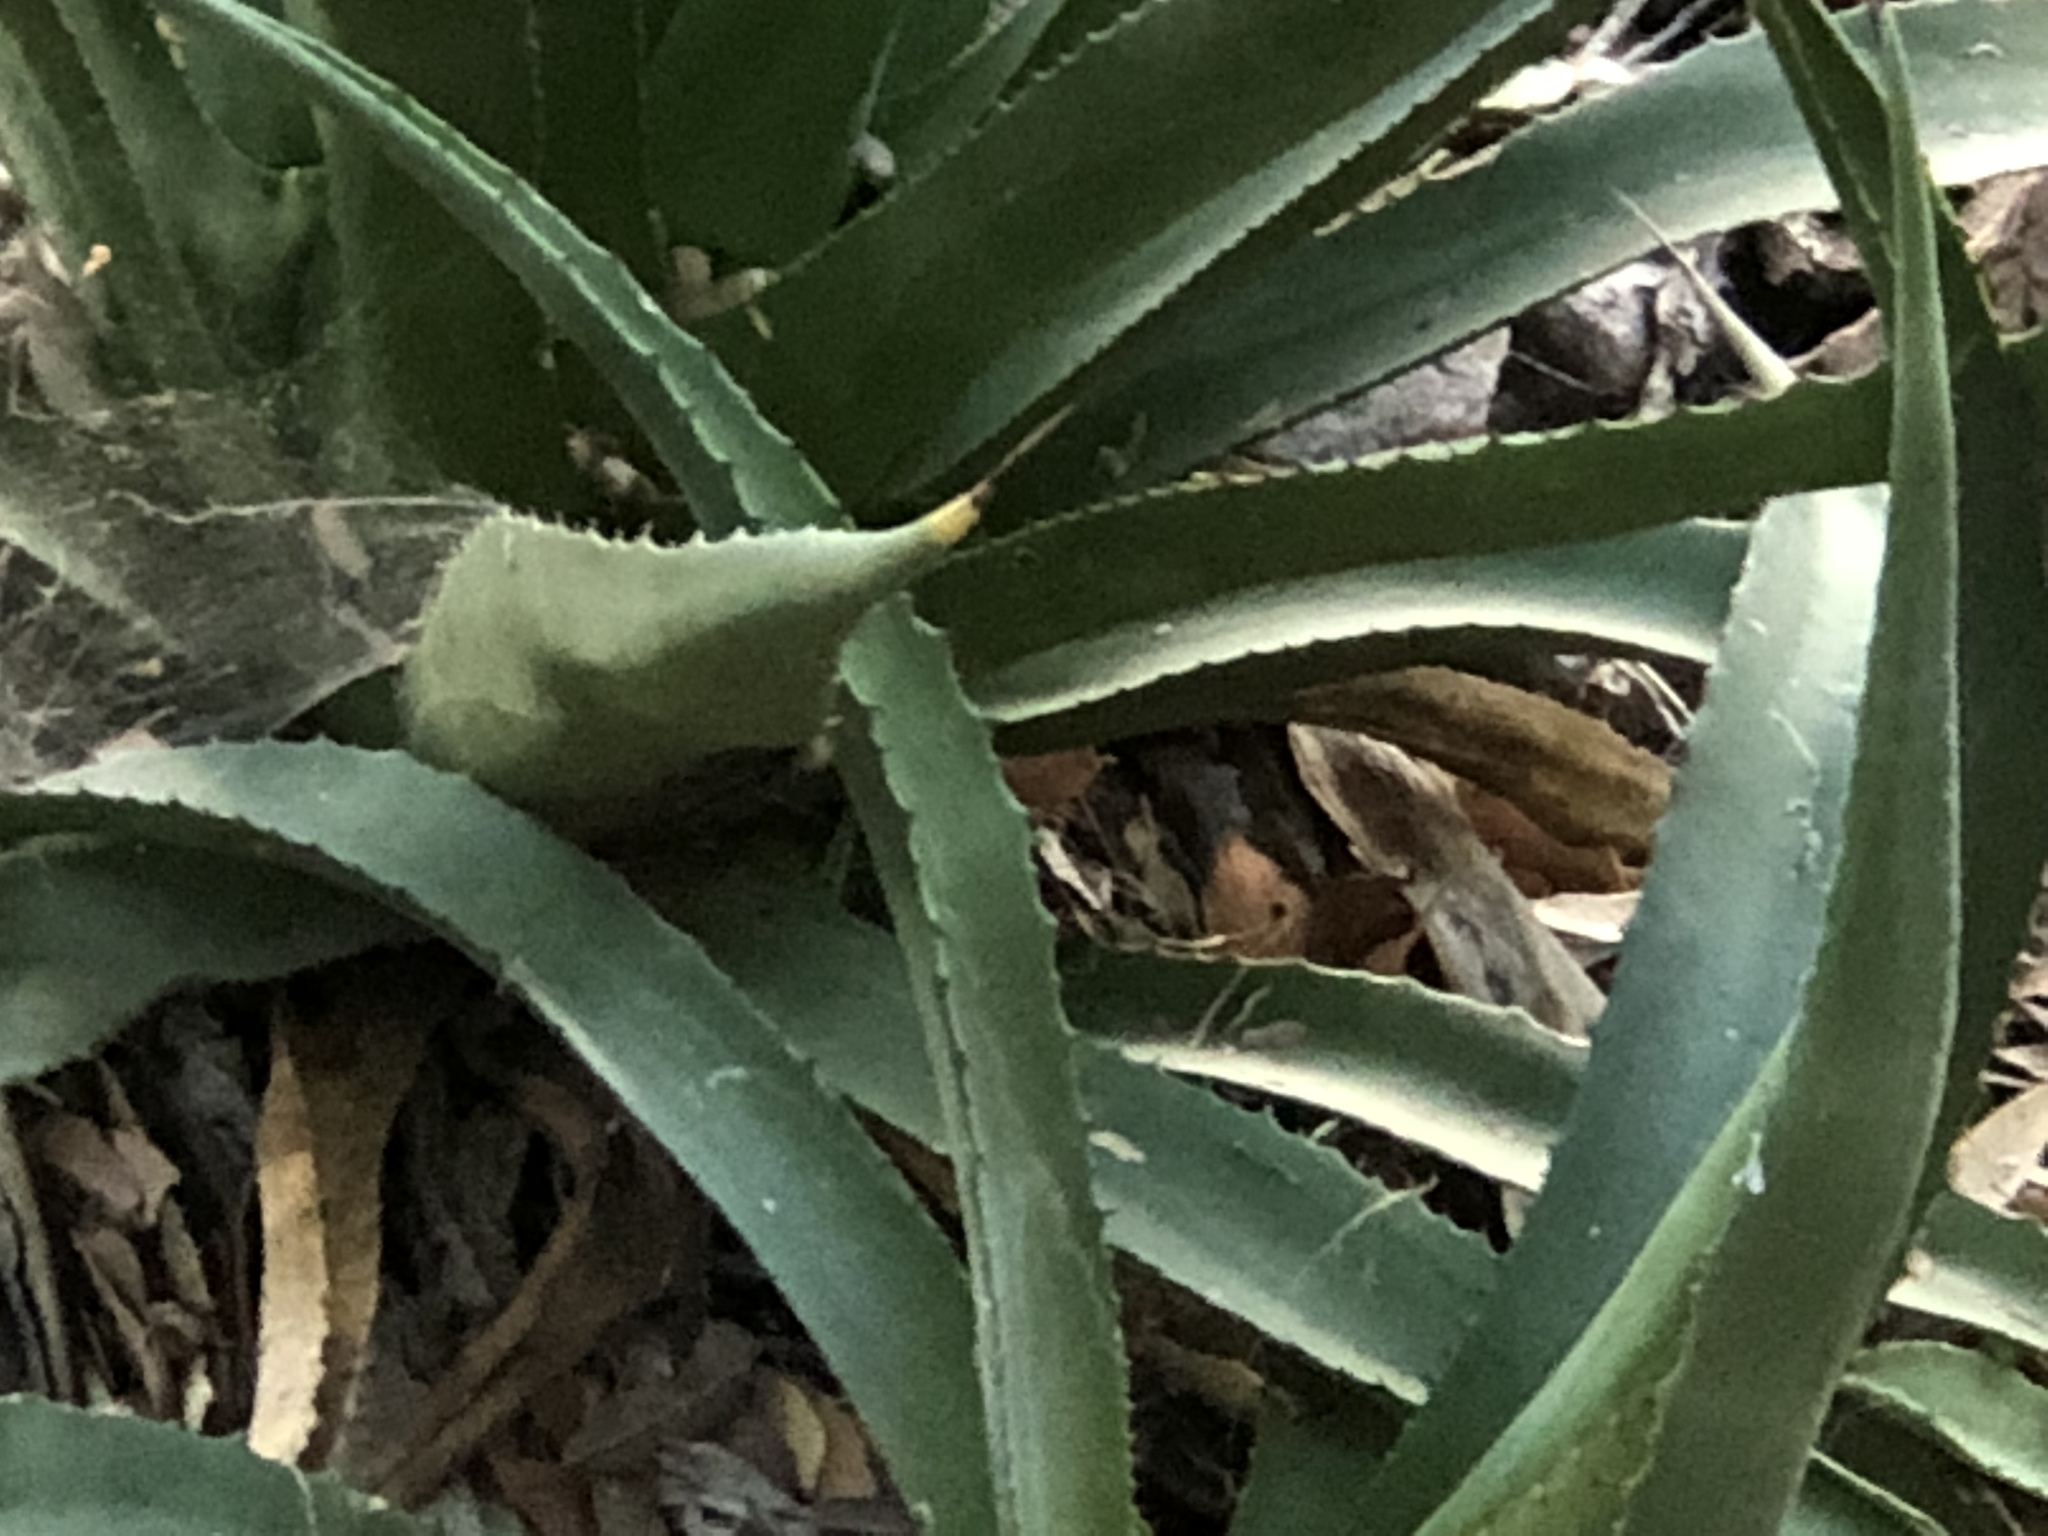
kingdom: Plantae
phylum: Tracheophyta
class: Liliopsida
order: Asparagales
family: Asparagaceae
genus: Agave
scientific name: Agave palmeri
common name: Palmer agave
